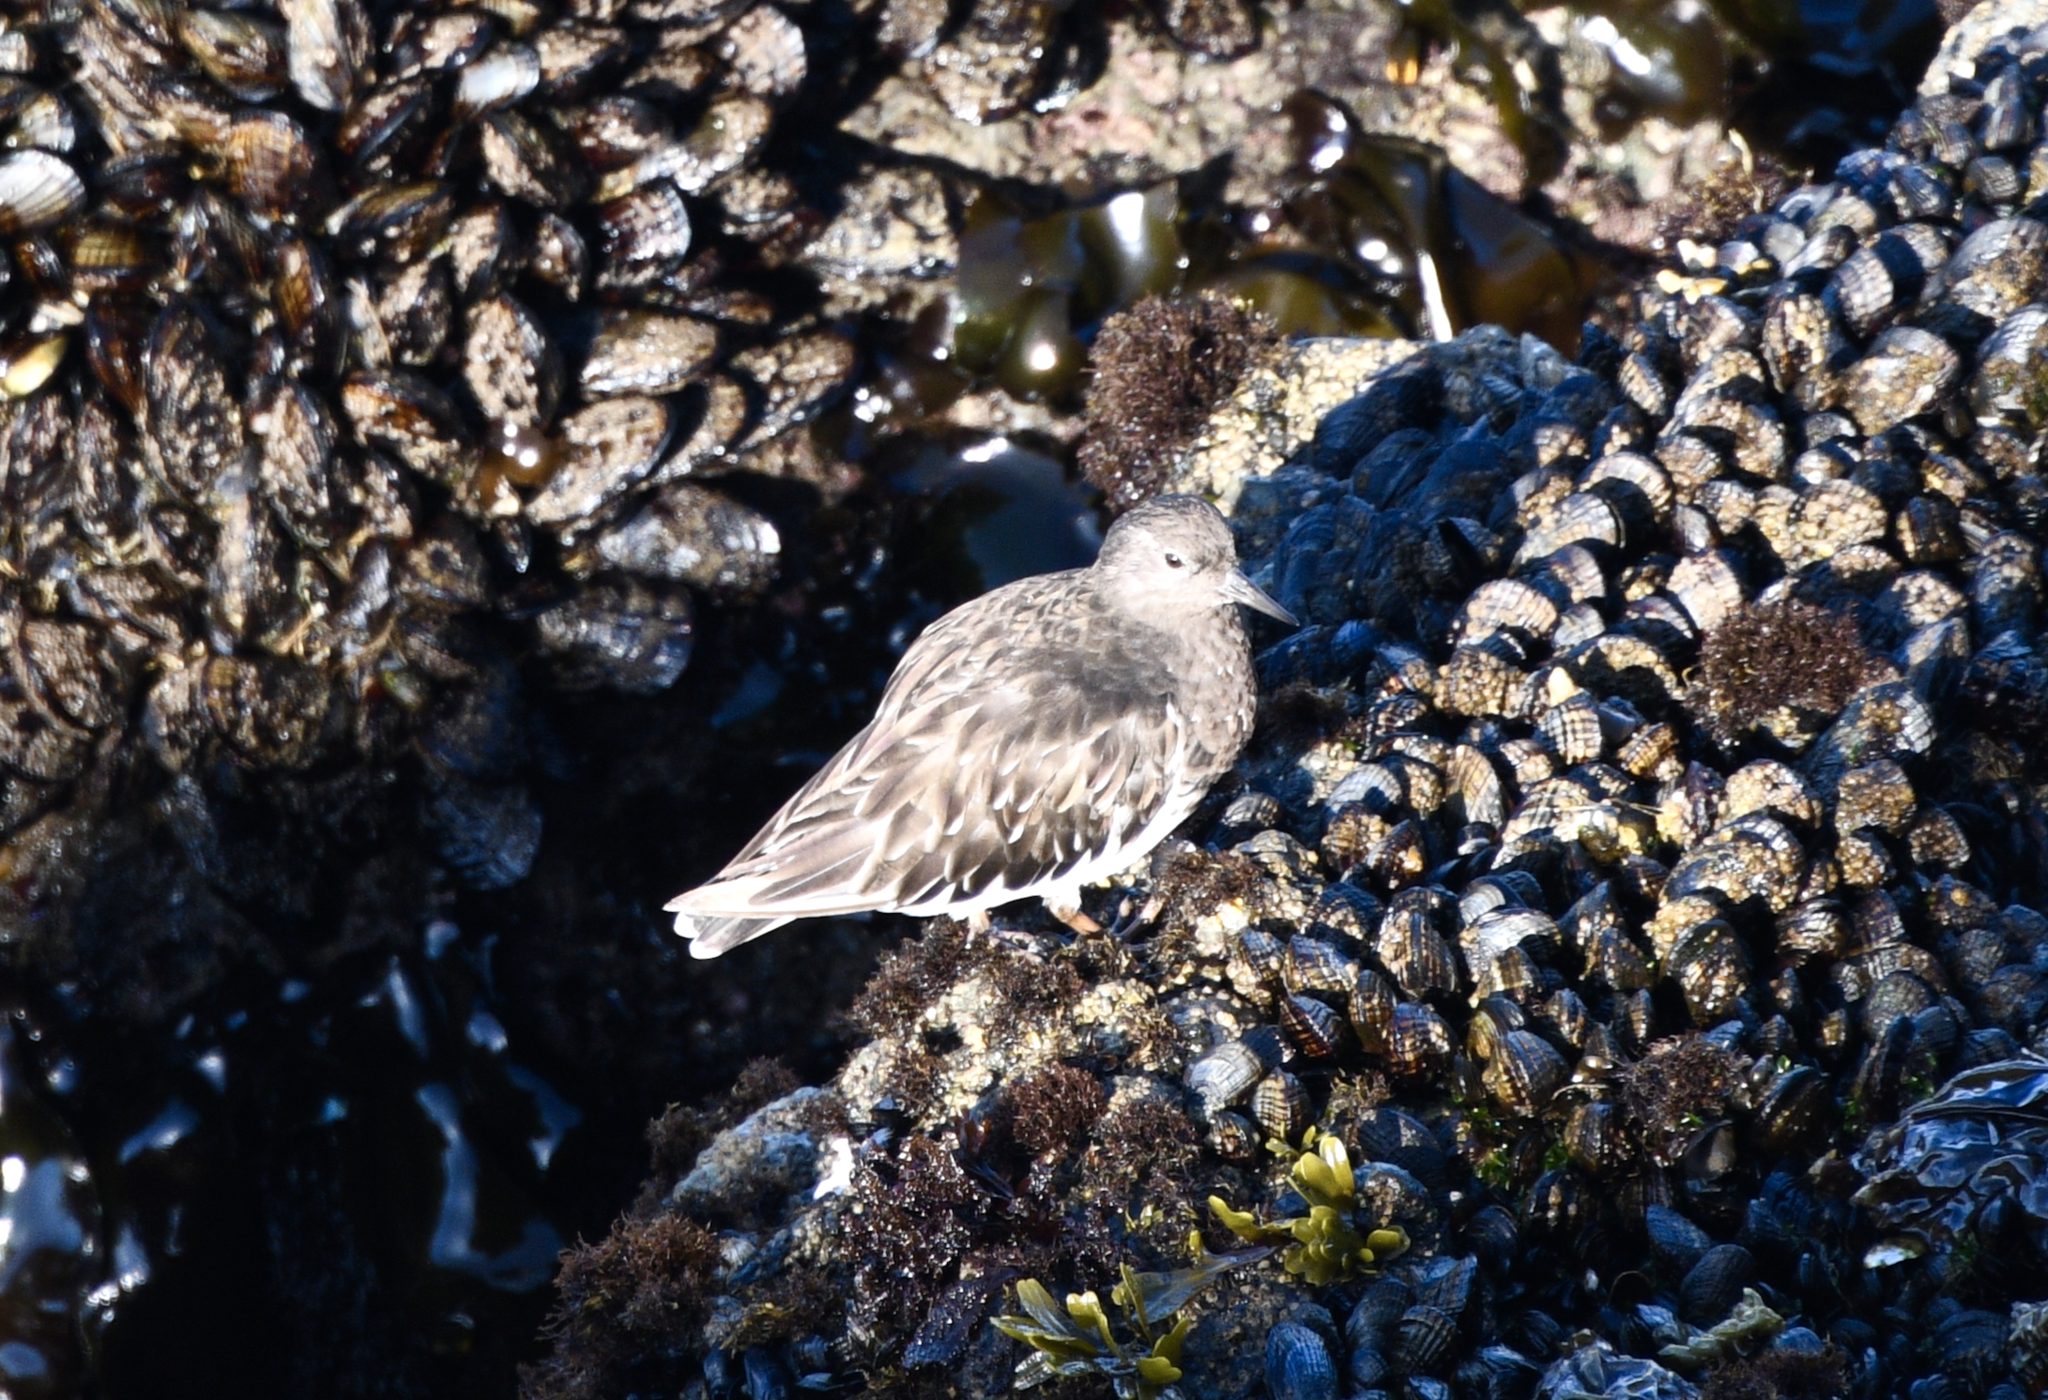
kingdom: Animalia
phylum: Chordata
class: Aves
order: Charadriiformes
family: Scolopacidae
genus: Arenaria
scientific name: Arenaria melanocephala
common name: Black turnstone
